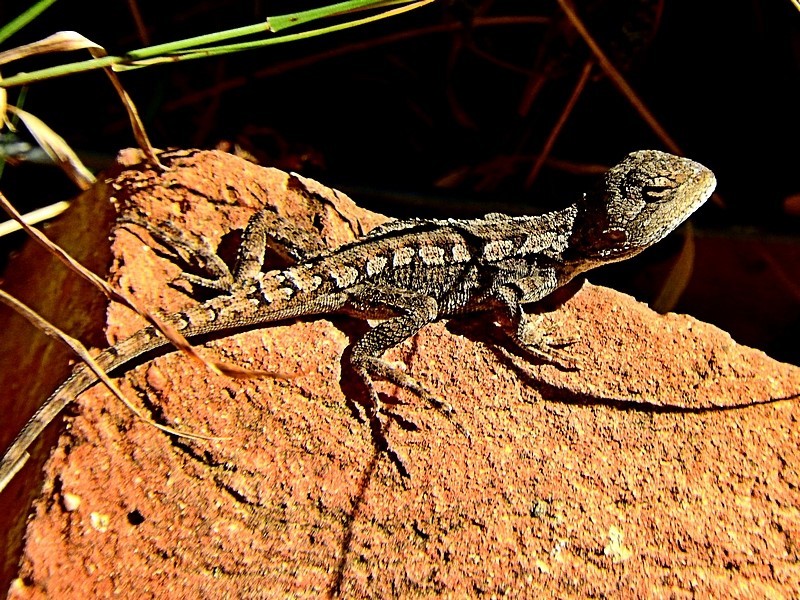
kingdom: Animalia
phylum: Chordata
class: Squamata
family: Agamidae
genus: Amphibolurus
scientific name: Amphibolurus muricatus
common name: Jacky lizard
